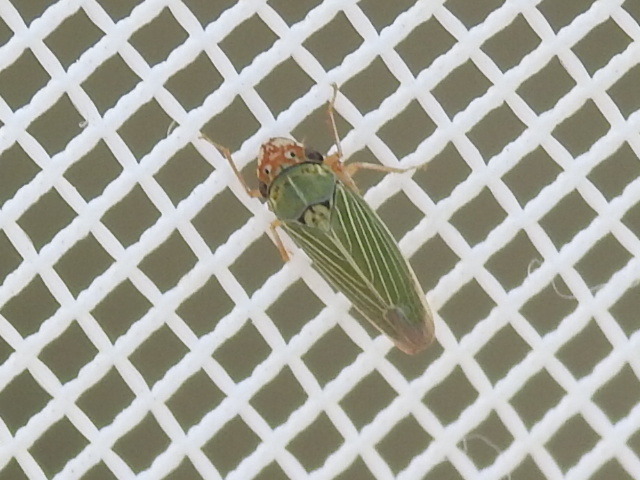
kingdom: Animalia
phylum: Arthropoda
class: Insecta
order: Hemiptera
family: Cicadellidae
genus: Xyphon
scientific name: Xyphon reticulatum
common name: Planthopper
